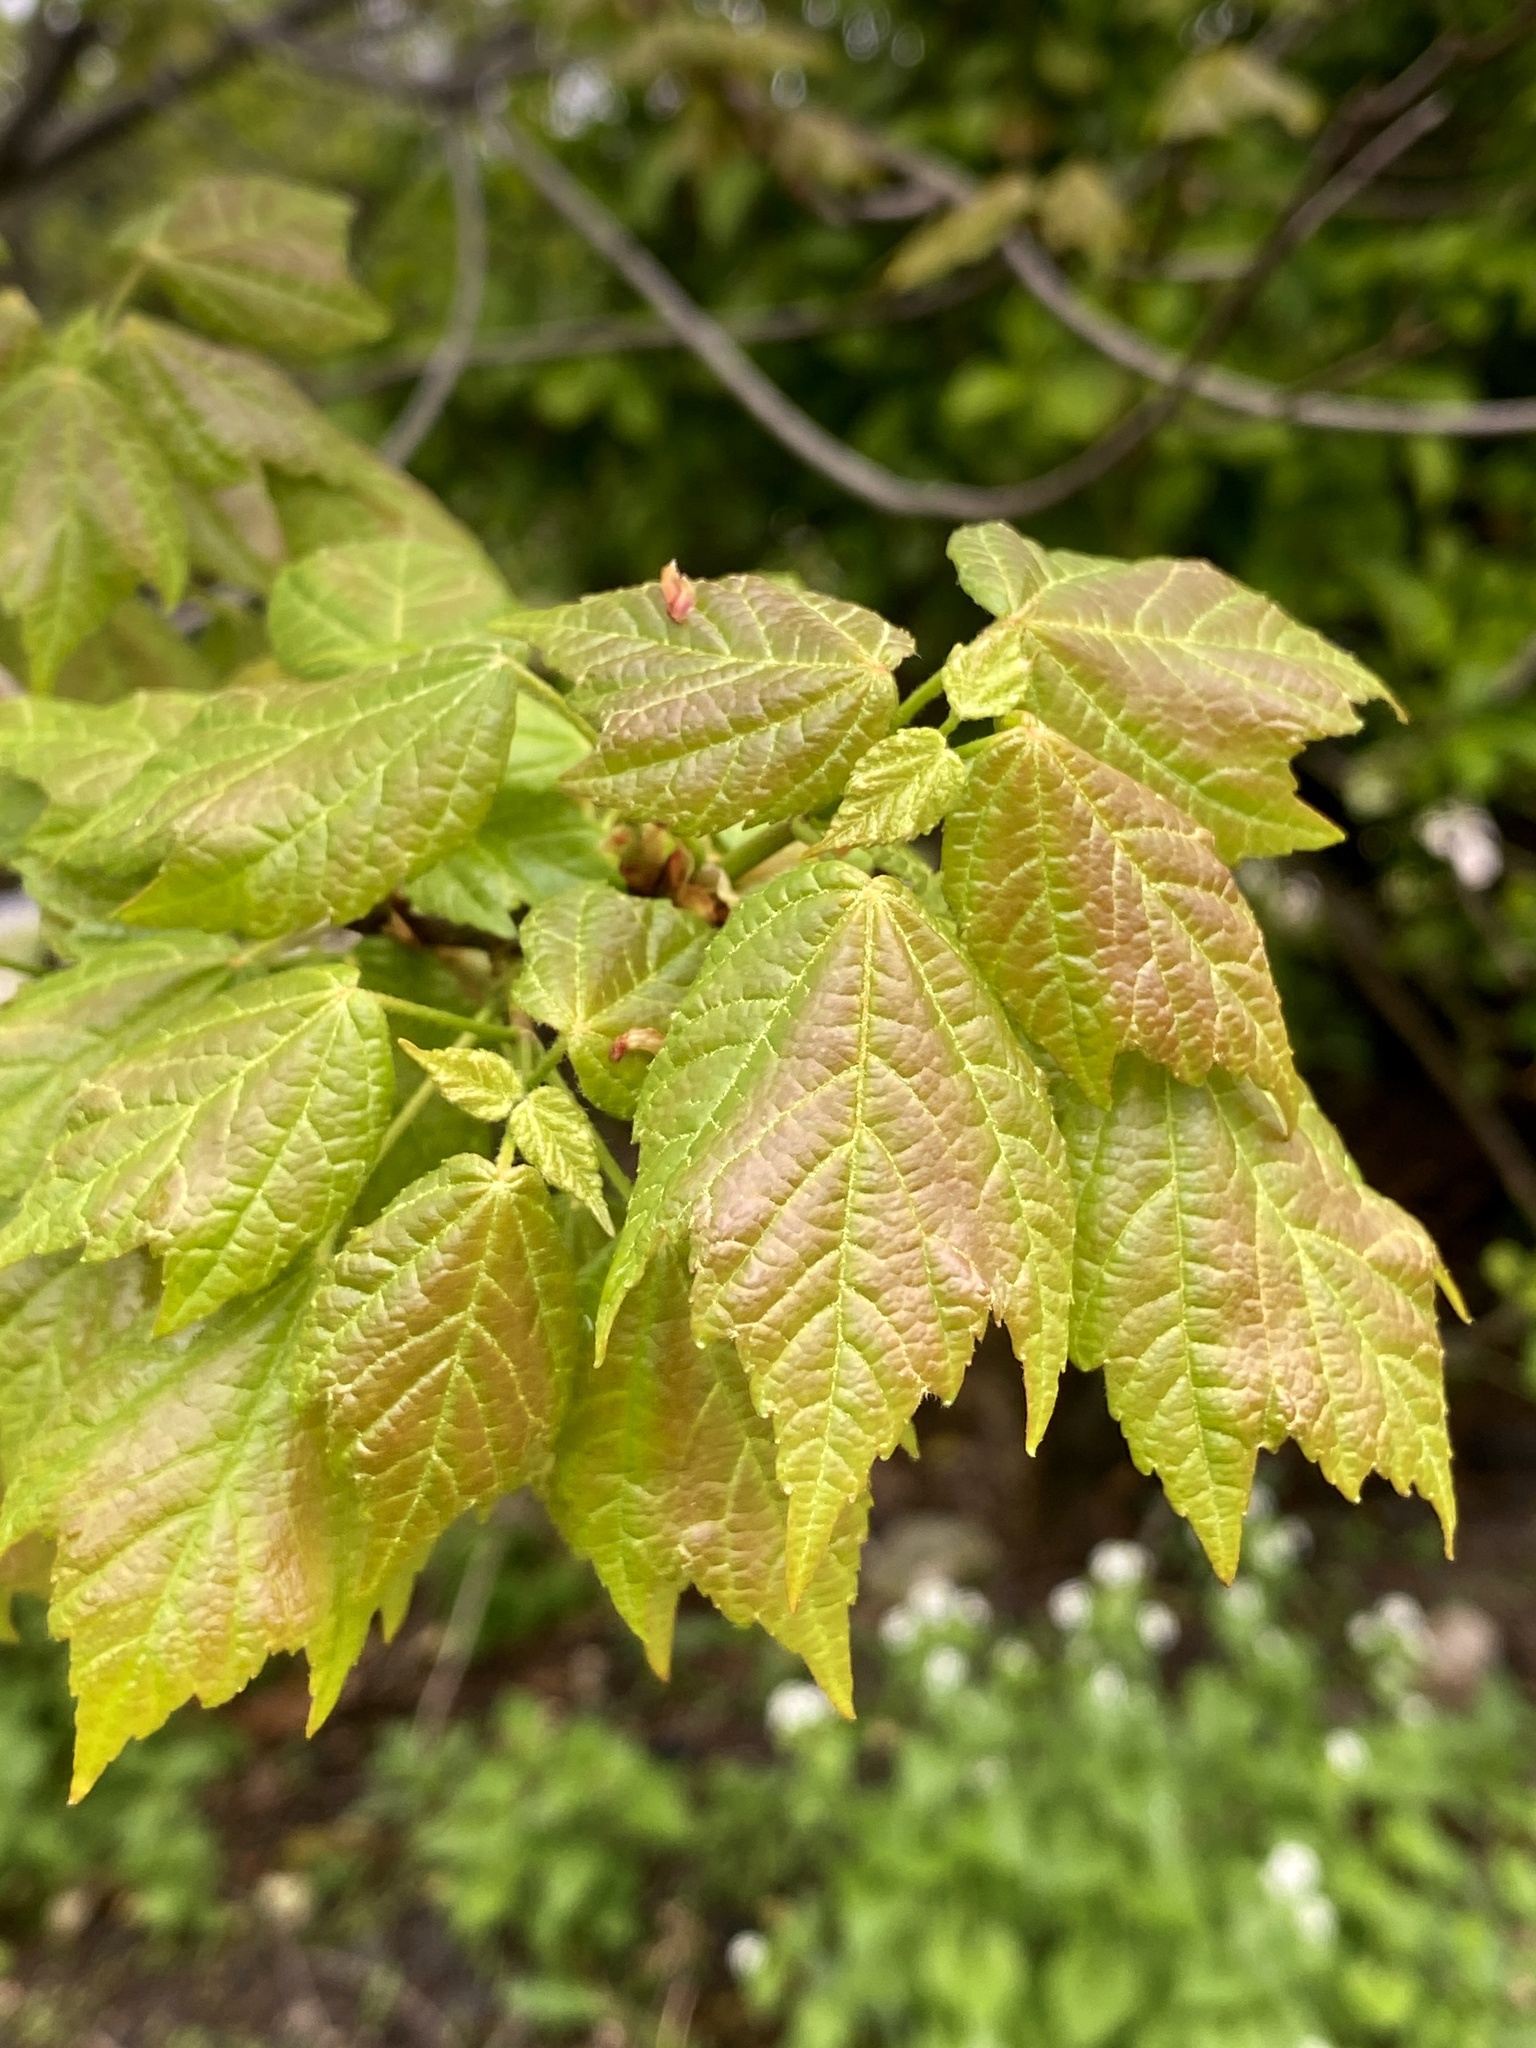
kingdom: Plantae
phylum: Tracheophyta
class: Magnoliopsida
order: Sapindales
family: Sapindaceae
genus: Acer
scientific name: Acer rubrum
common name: Red maple
